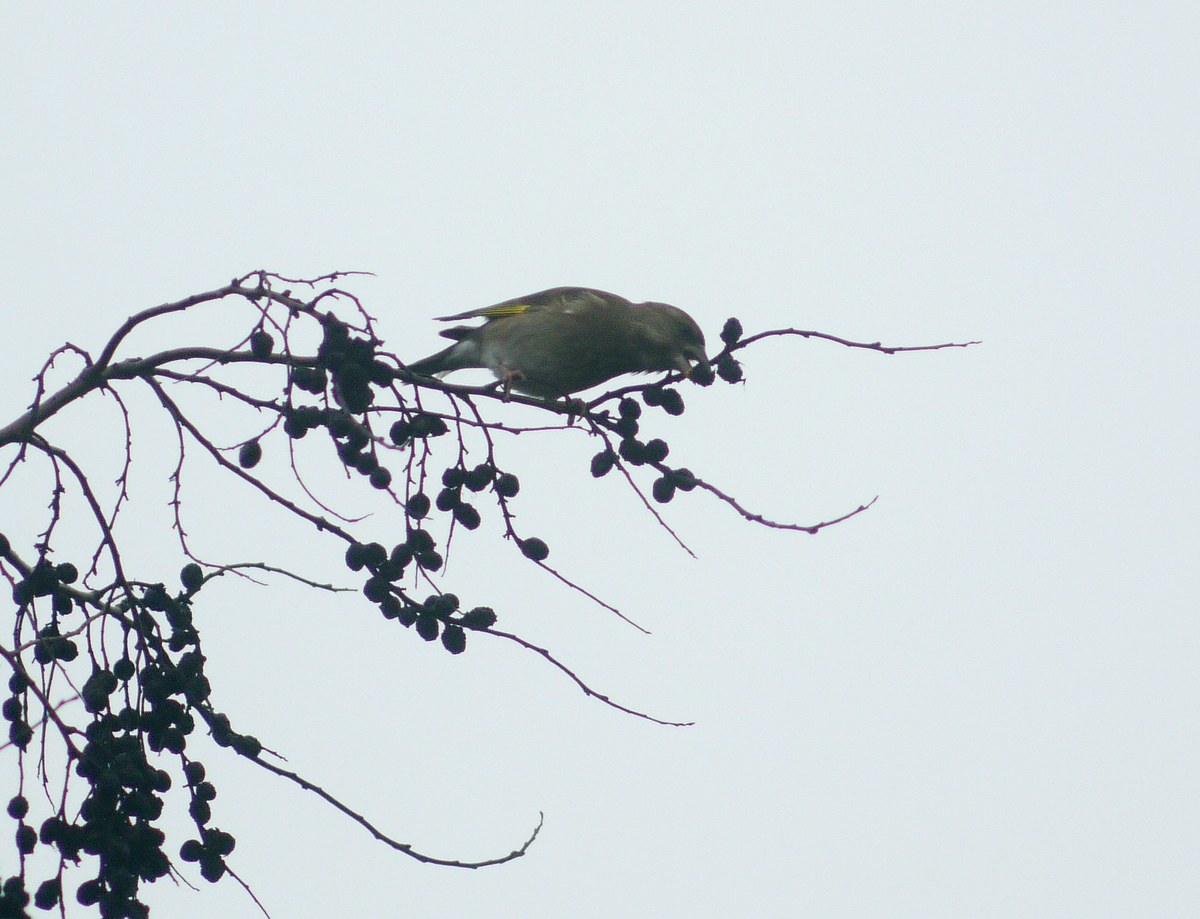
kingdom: Plantae
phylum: Tracheophyta
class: Liliopsida
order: Poales
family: Poaceae
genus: Chloris
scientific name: Chloris chloris
